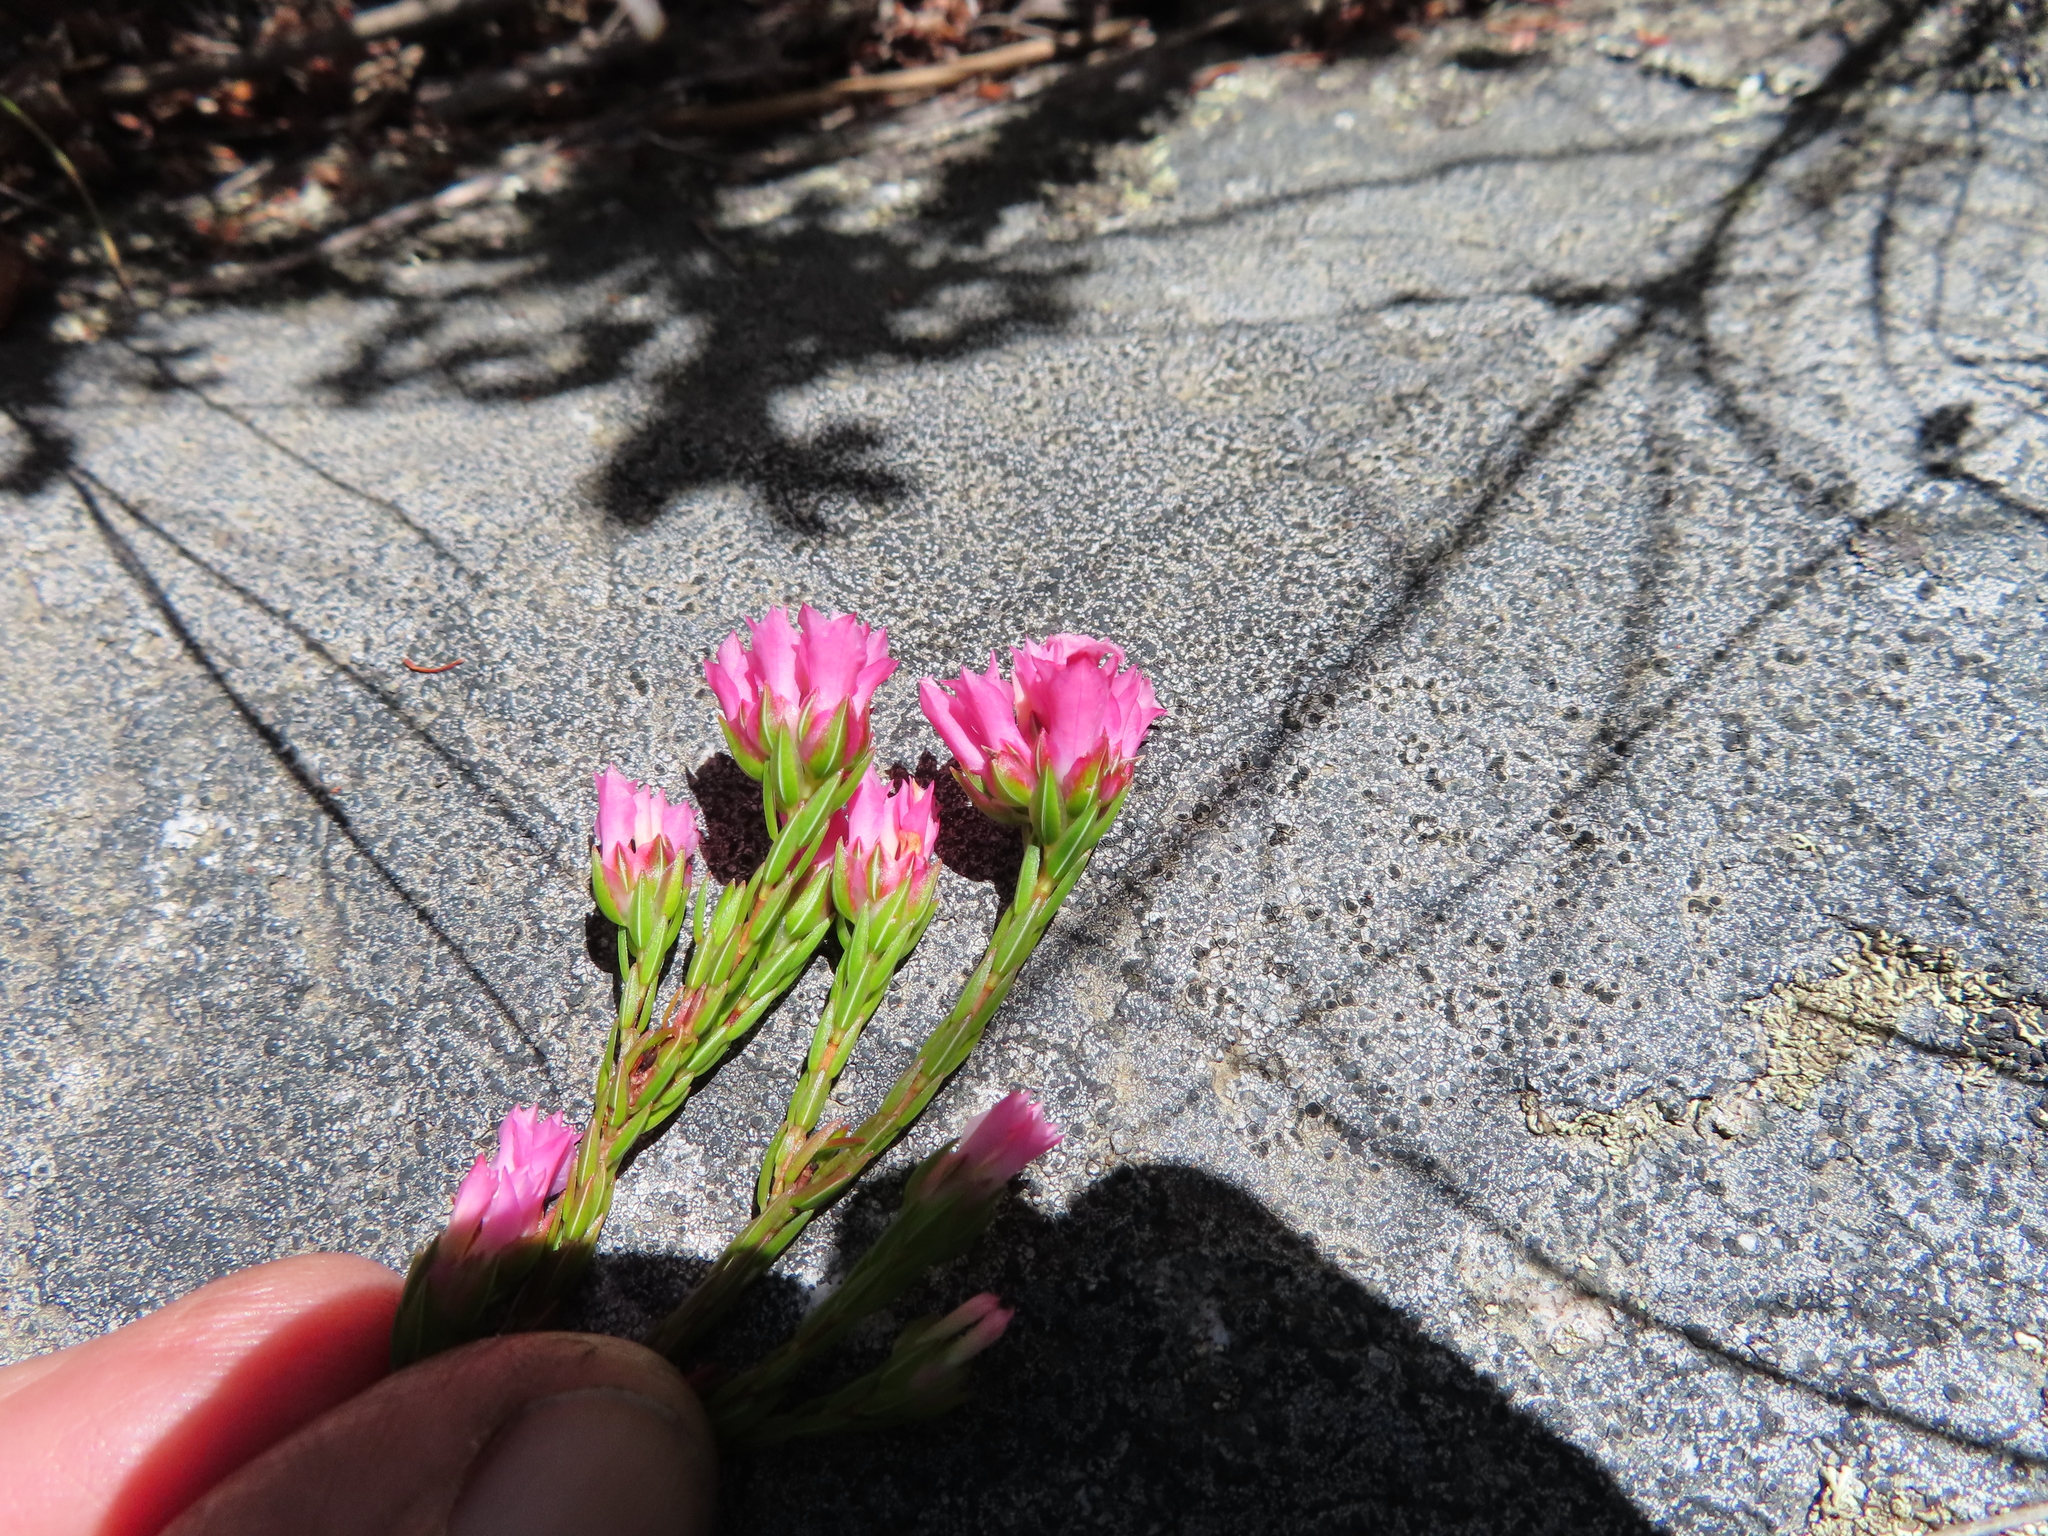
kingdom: Plantae
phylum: Tracheophyta
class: Magnoliopsida
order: Ericales
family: Ericaceae
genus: Erica
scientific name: Erica bracteolaris
